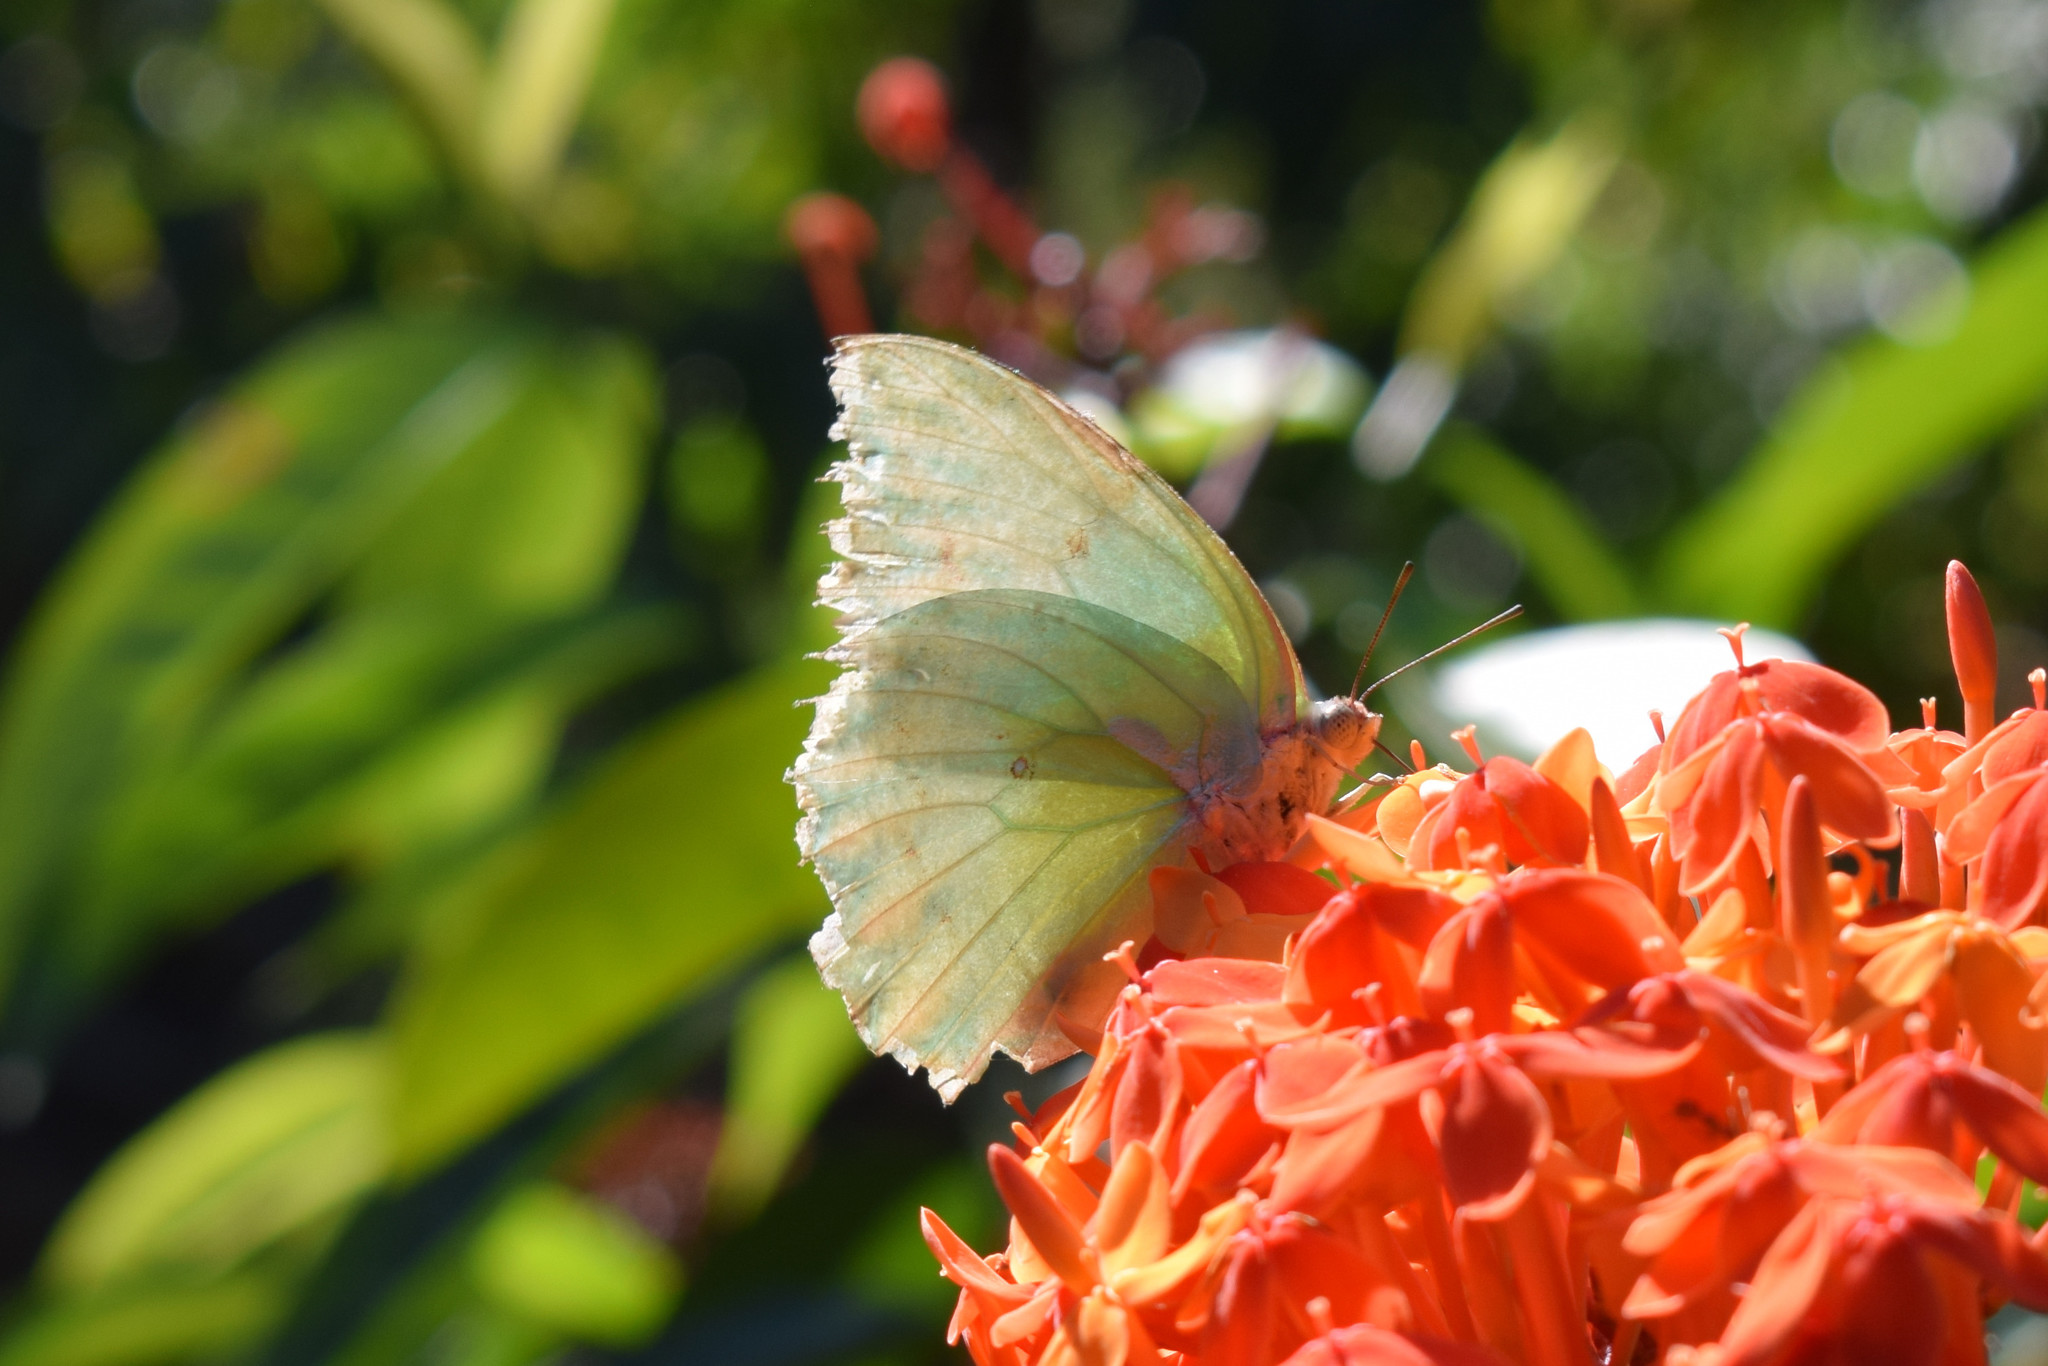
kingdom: Animalia
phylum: Arthropoda
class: Insecta
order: Lepidoptera
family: Pieridae
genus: Catopsilia
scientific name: Catopsilia pomona
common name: Common emigrant
